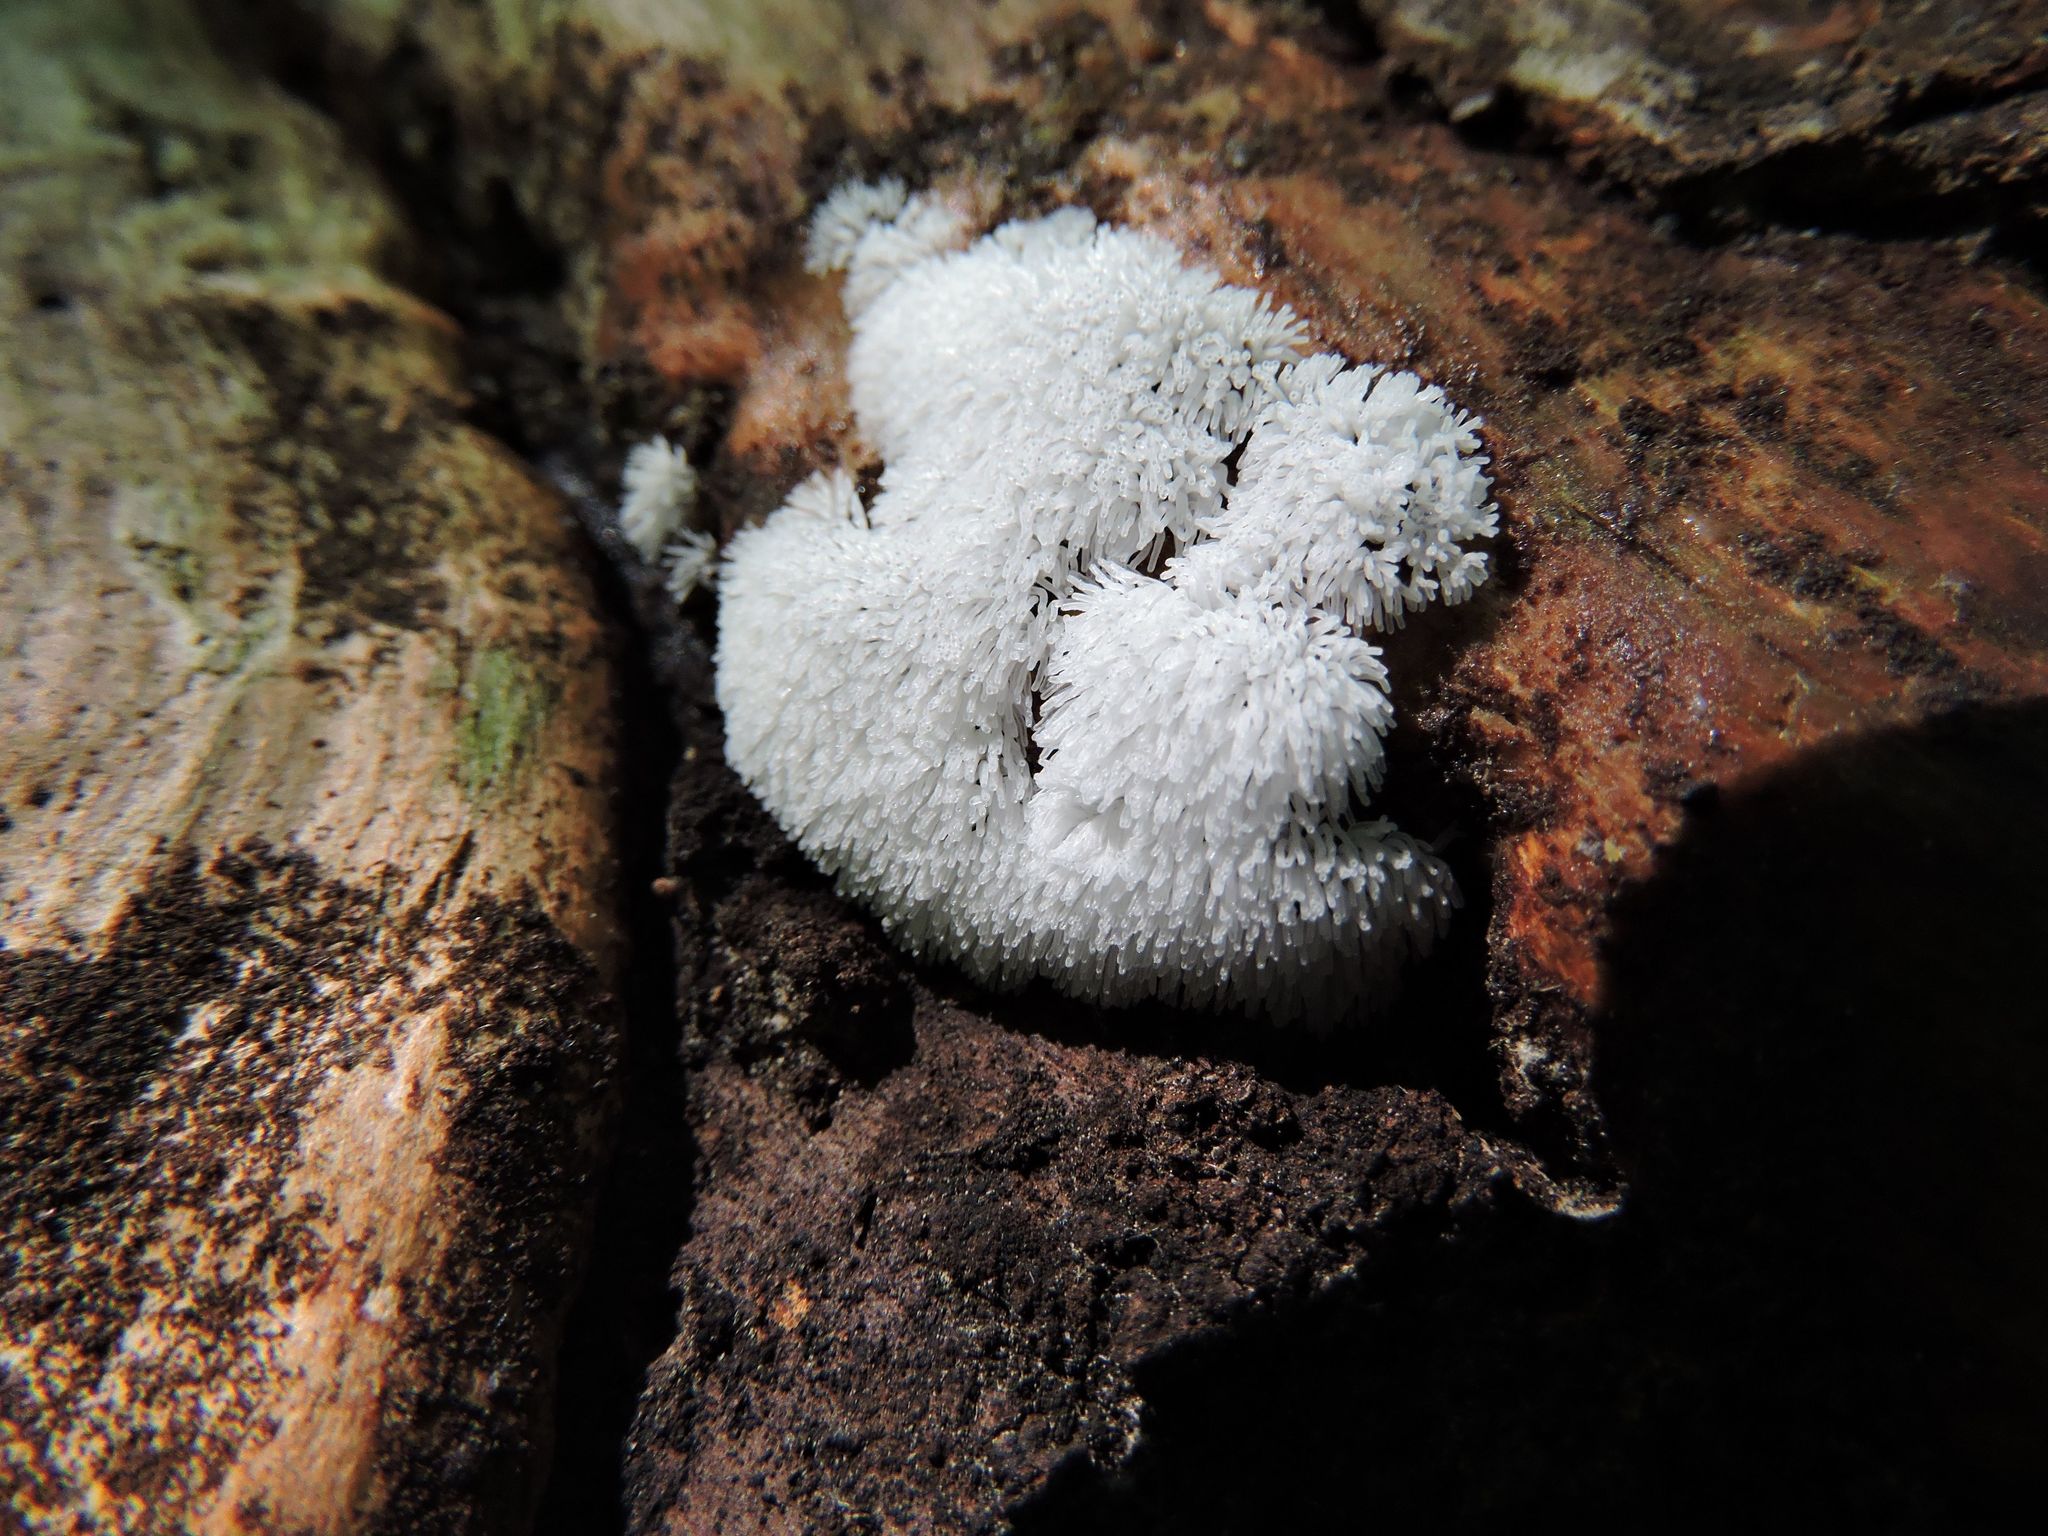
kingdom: Protozoa
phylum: Mycetozoa
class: Protosteliomycetes
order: Ceratiomyxales
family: Ceratiomyxaceae
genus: Ceratiomyxa
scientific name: Ceratiomyxa fruticulosa
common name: Honeycomb coral slime mold
